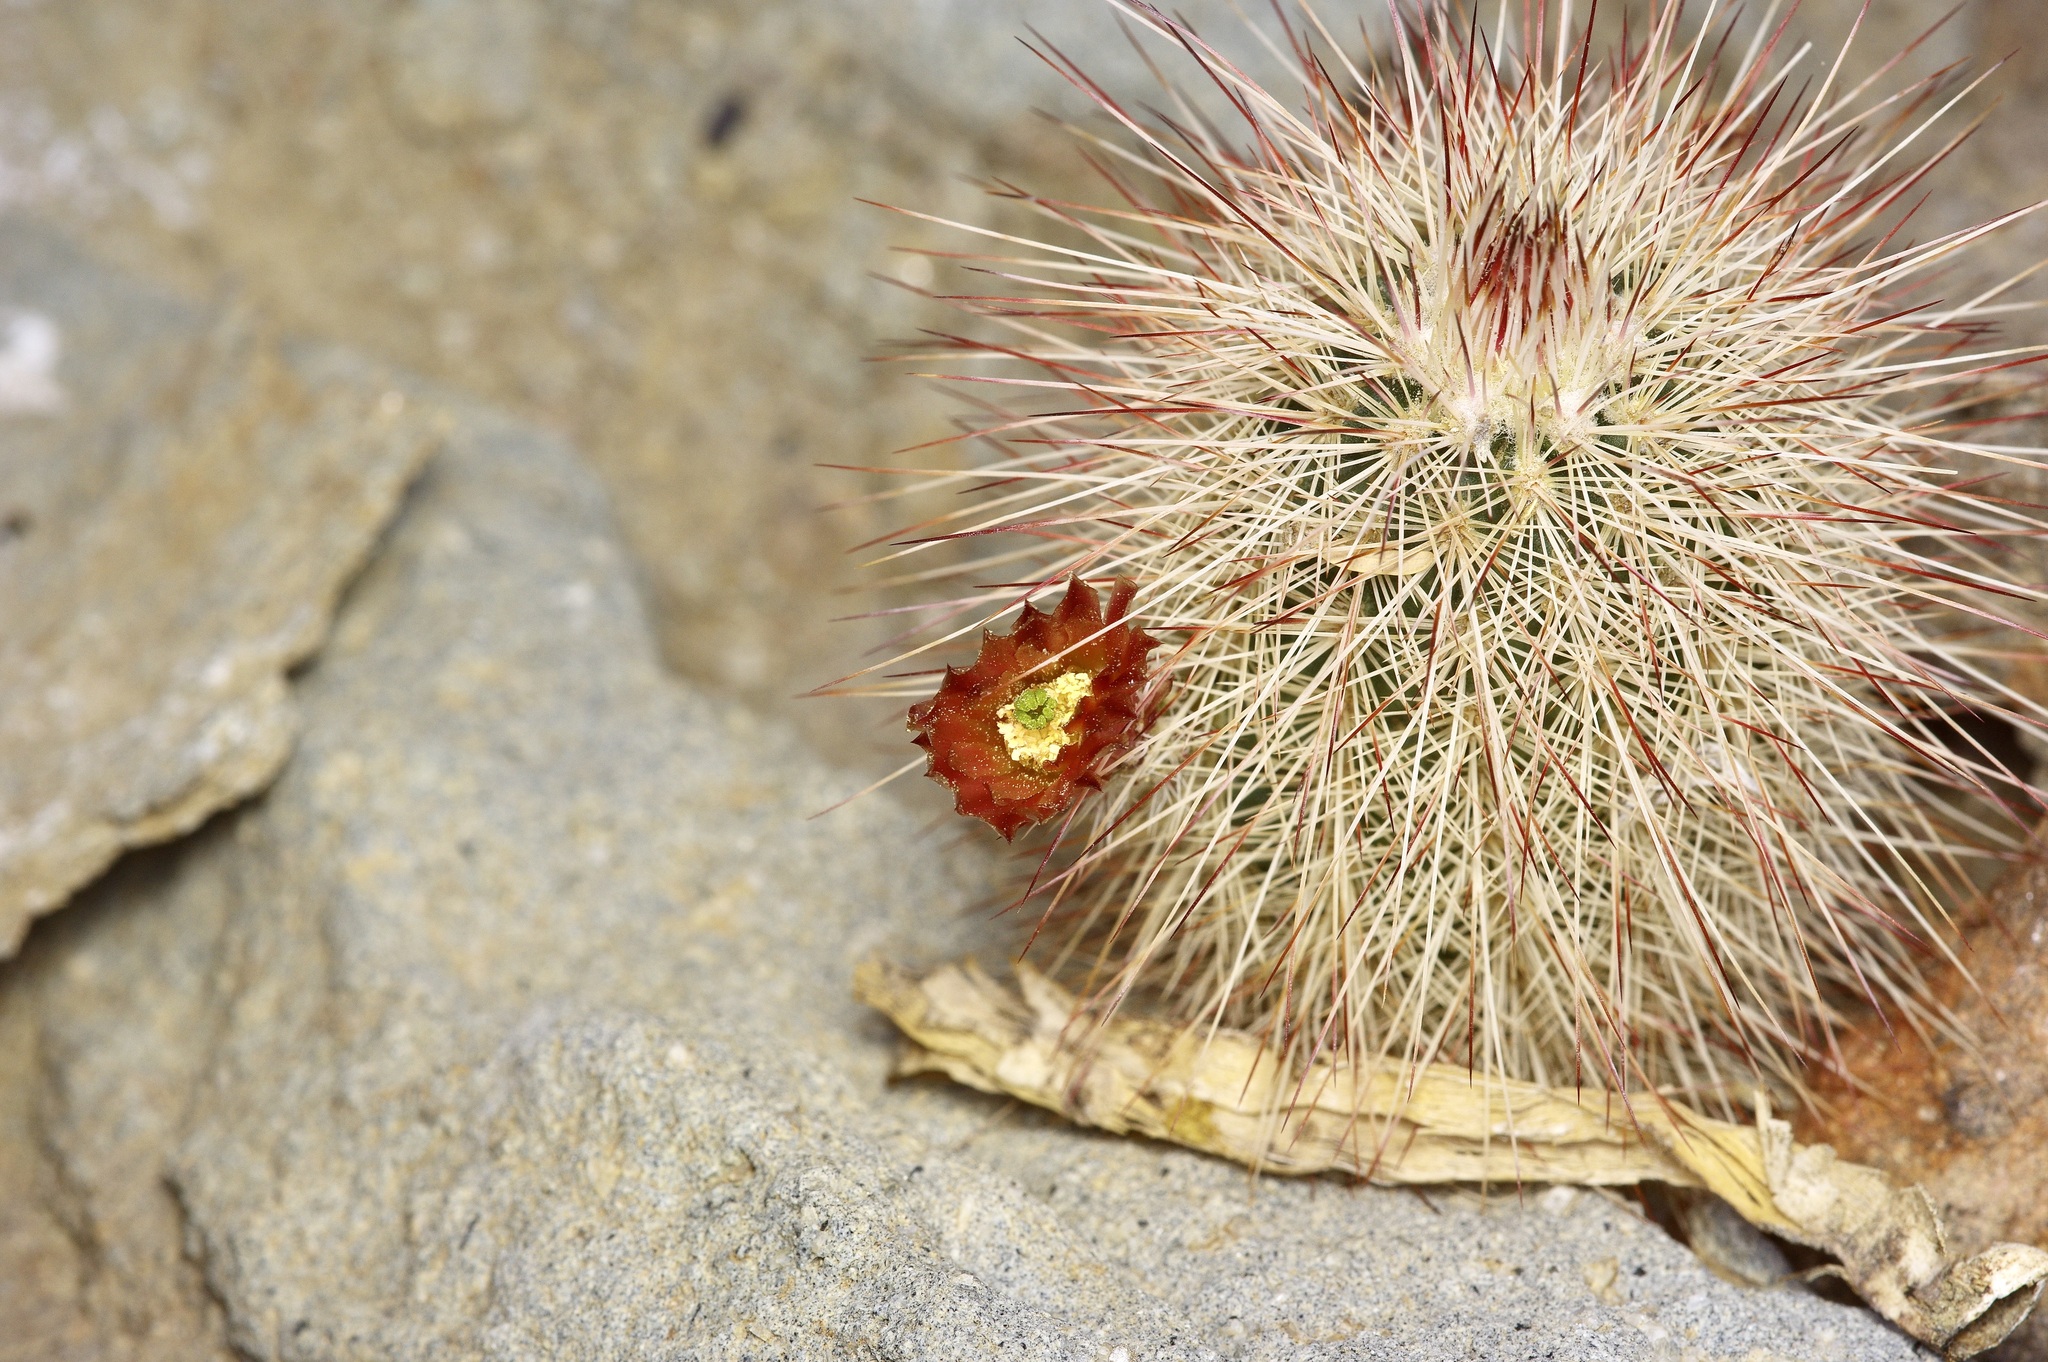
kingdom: Plantae
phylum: Tracheophyta
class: Magnoliopsida
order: Caryophyllales
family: Cactaceae
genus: Echinocereus
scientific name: Echinocereus russanthus
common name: Brownspine hedgehog cactus
